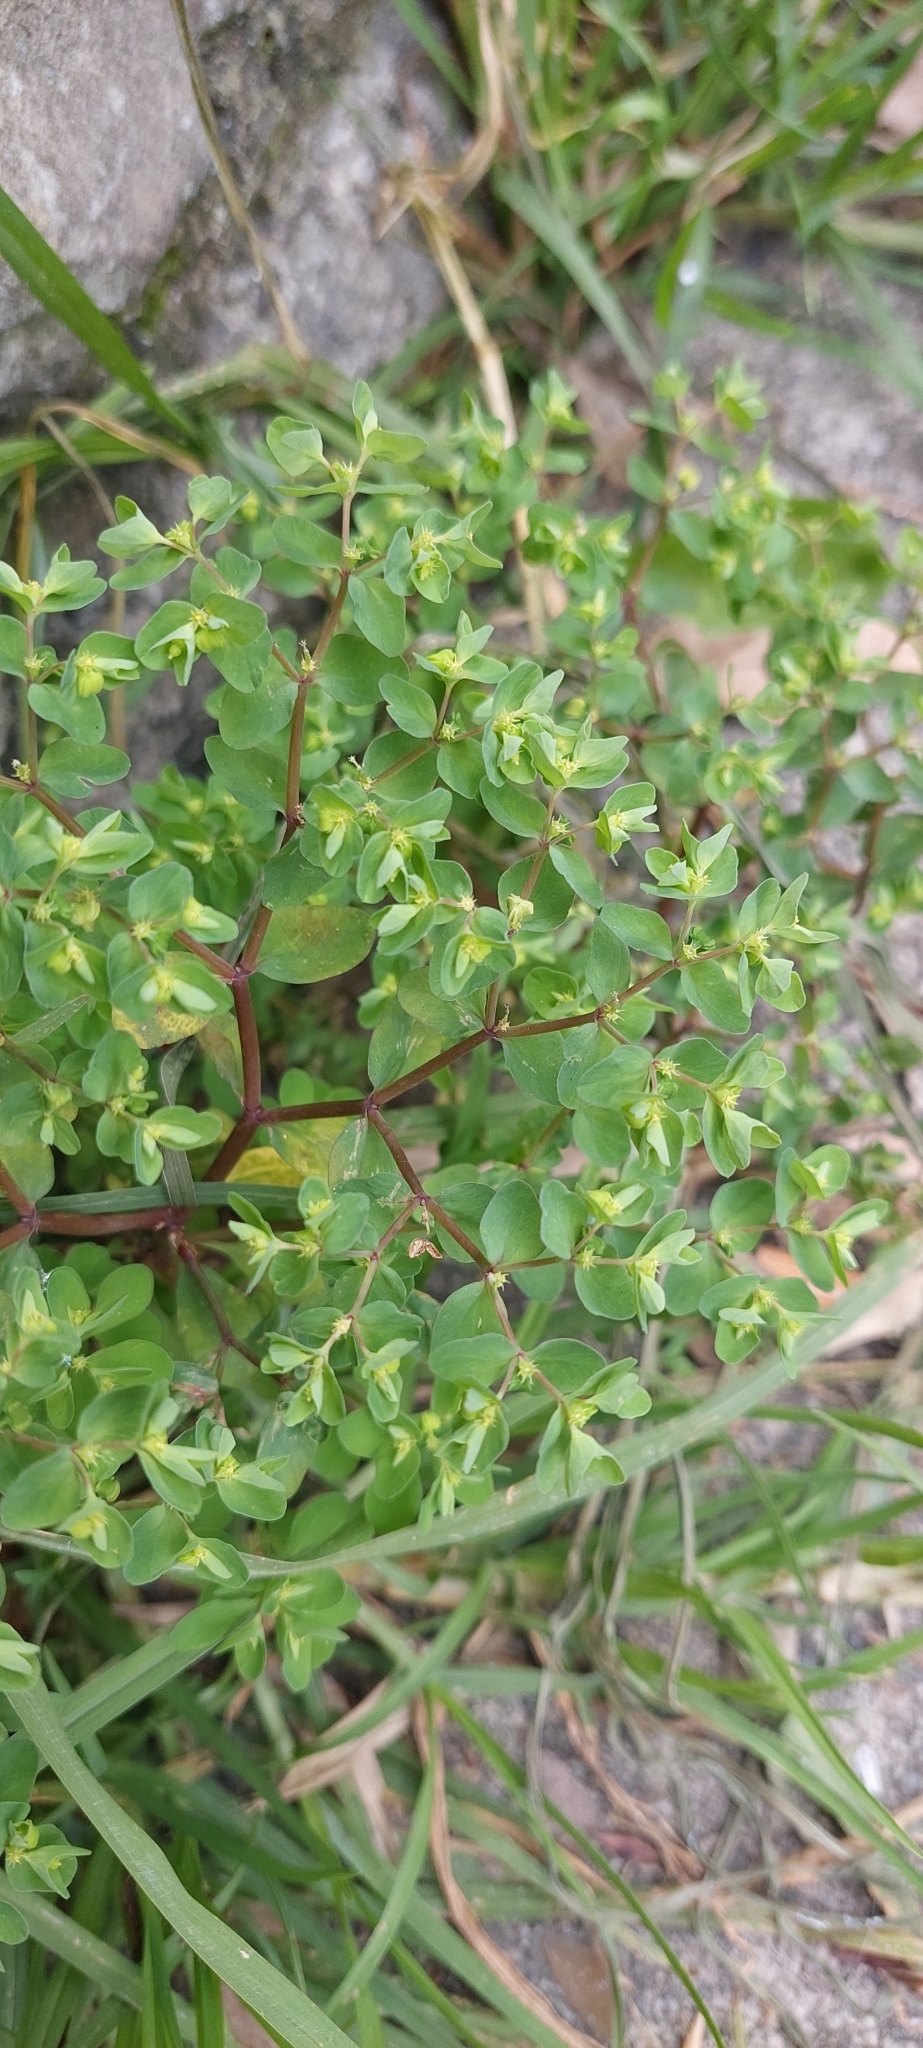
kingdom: Plantae
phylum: Tracheophyta
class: Magnoliopsida
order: Malpighiales
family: Euphorbiaceae
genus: Euphorbia
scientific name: Euphorbia peplus
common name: Petty spurge
